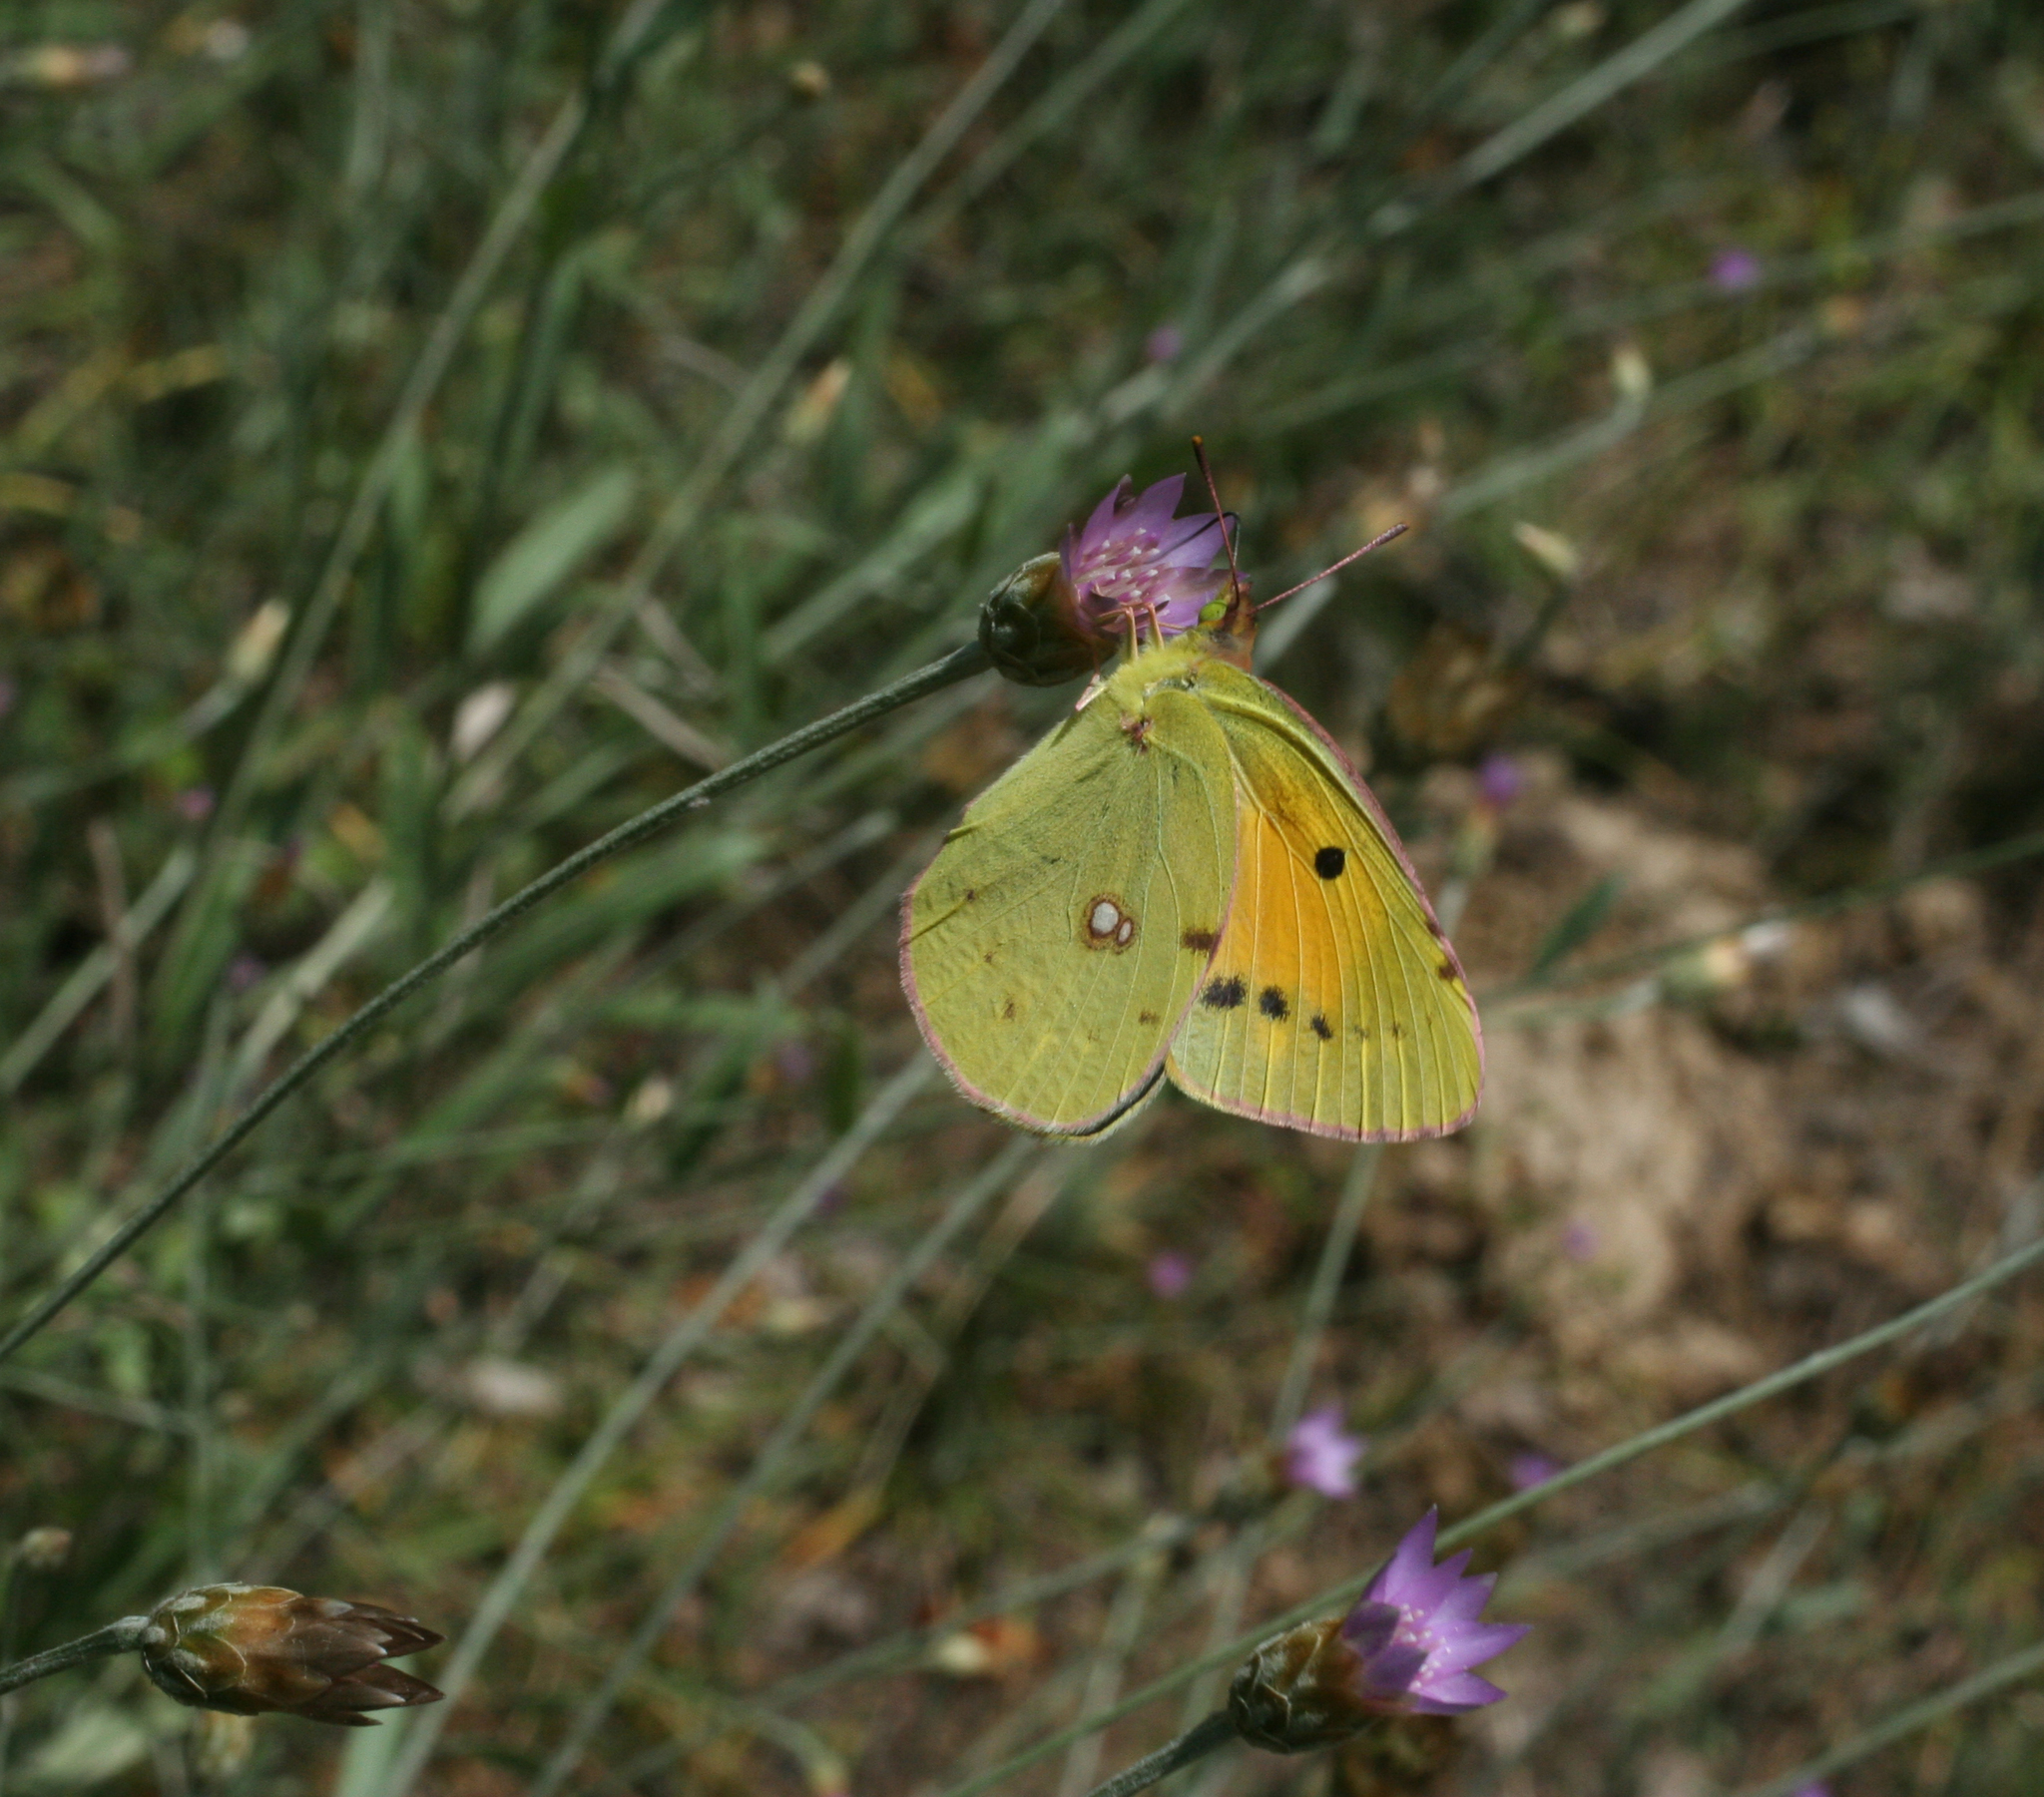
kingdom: Plantae
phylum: Tracheophyta
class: Magnoliopsida
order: Asterales
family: Asteraceae
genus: Xeranthemum
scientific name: Xeranthemum cylindraceum
